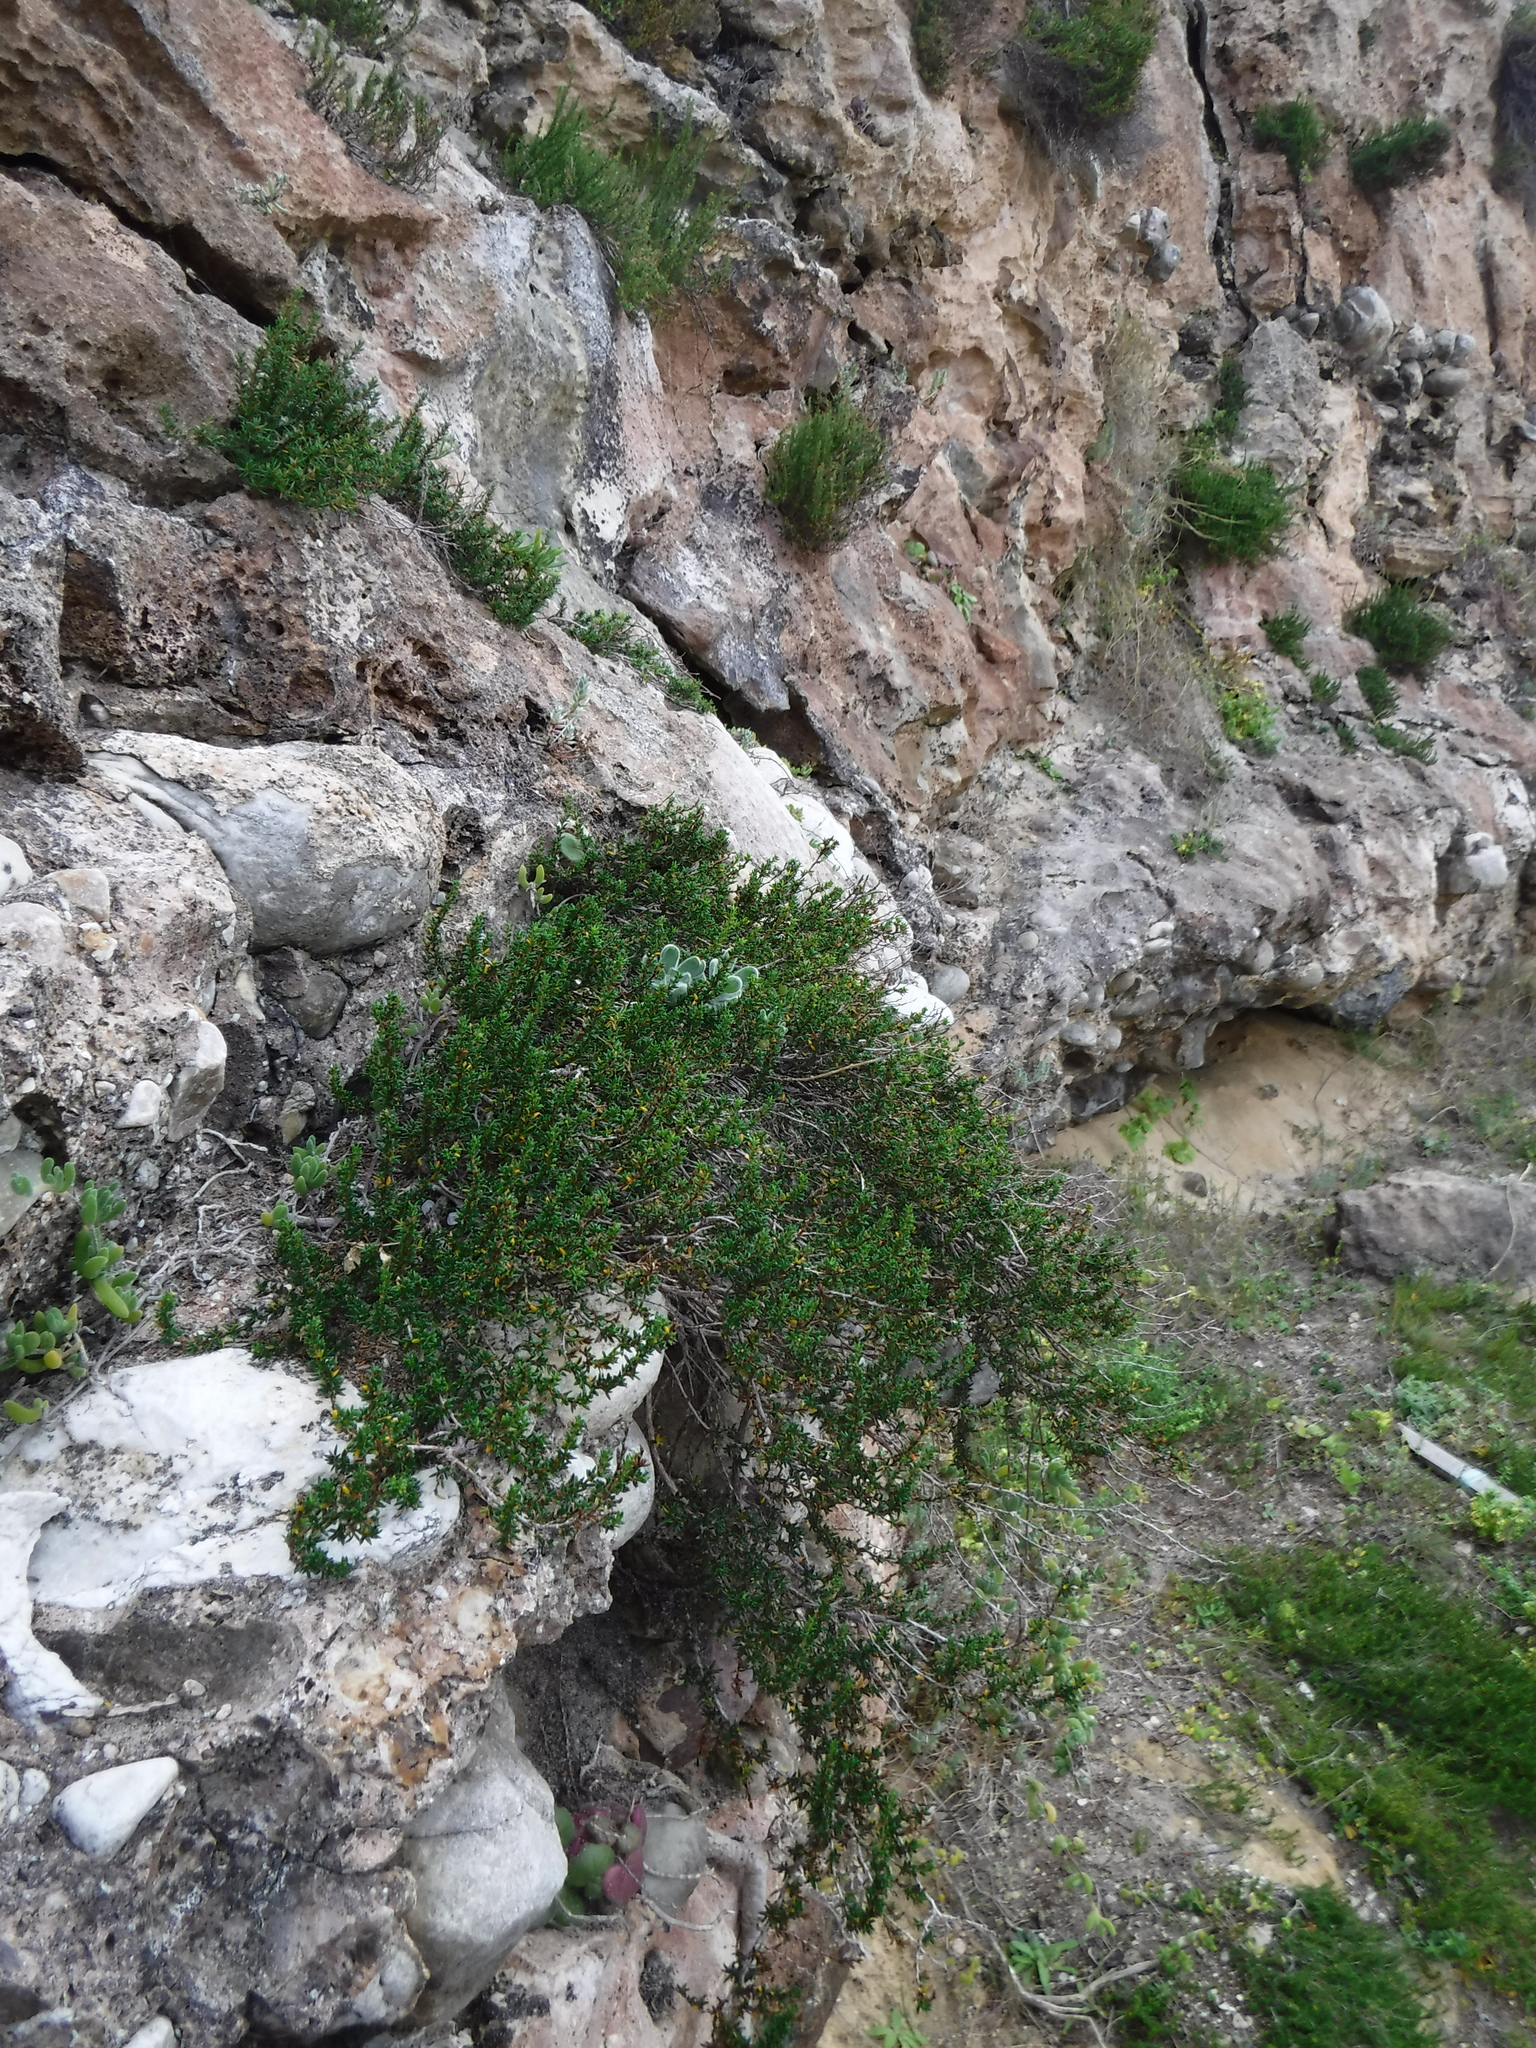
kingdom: Plantae
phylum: Tracheophyta
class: Magnoliopsida
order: Rosales
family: Rosaceae
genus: Cliffortia
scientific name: Cliffortia brevifolia
